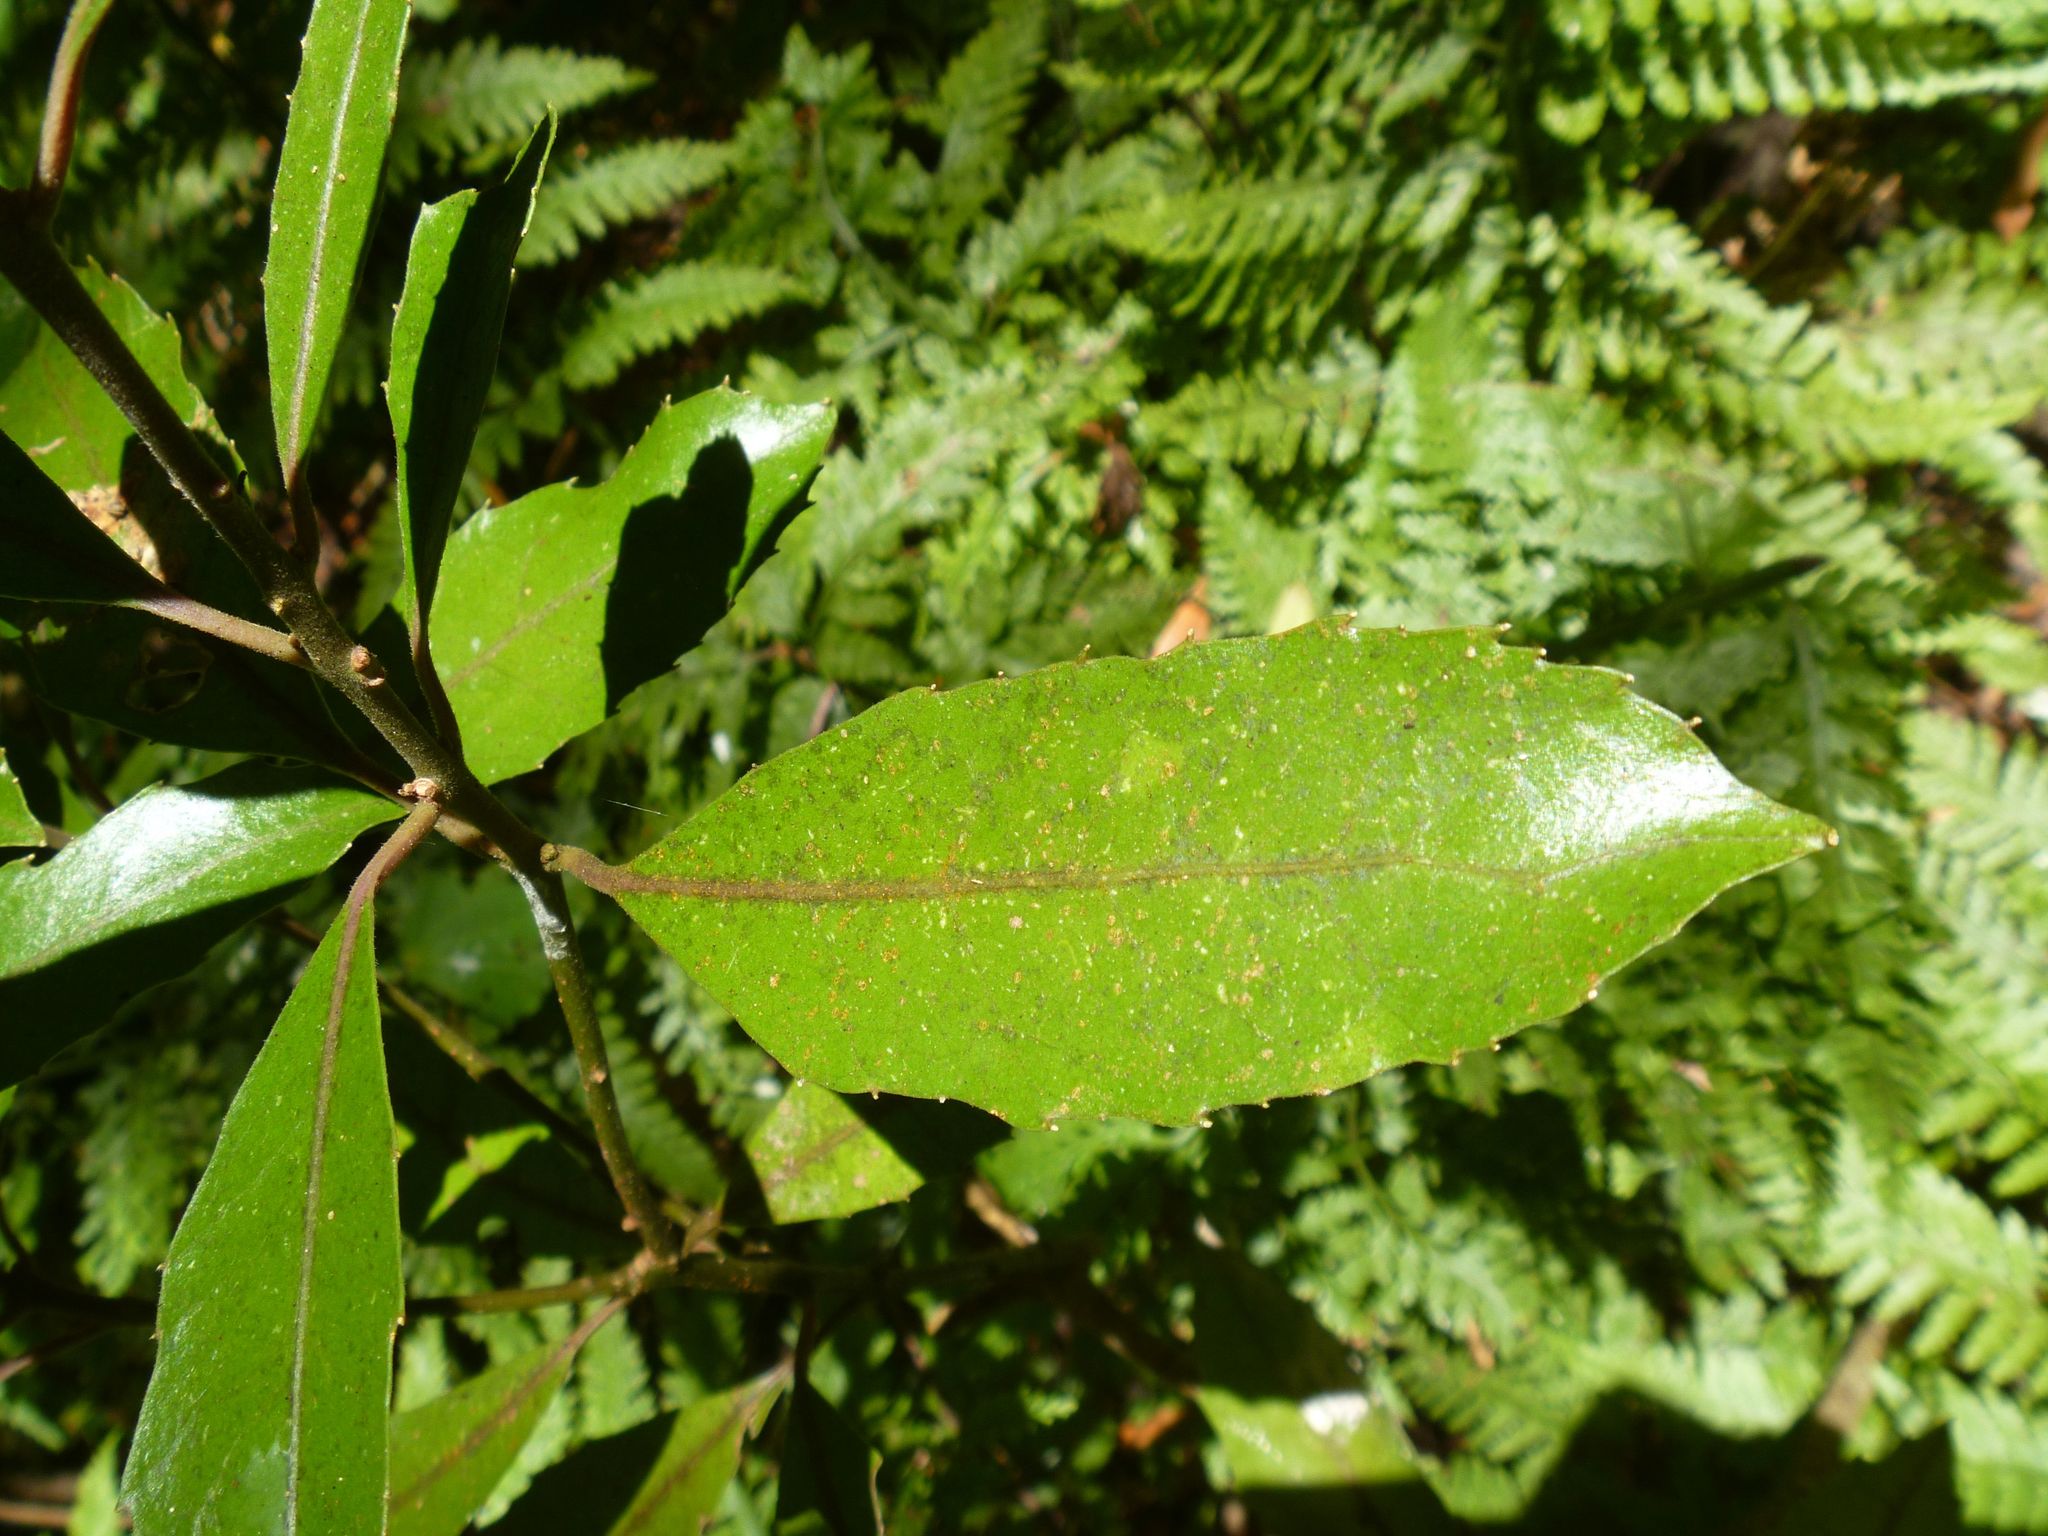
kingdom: Plantae
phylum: Tracheophyta
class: Magnoliopsida
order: Laurales
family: Monimiaceae
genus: Hedycarya
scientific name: Hedycarya arborea
